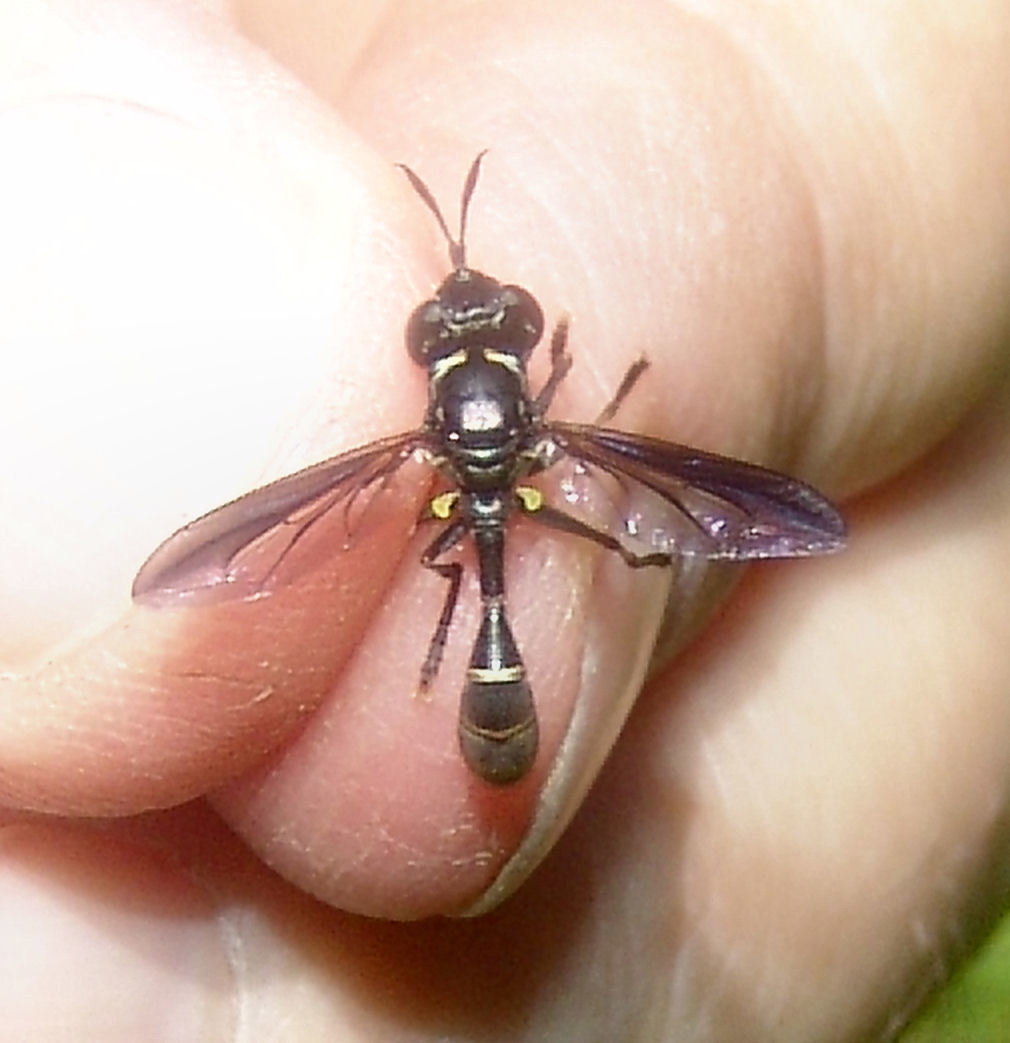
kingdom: Animalia
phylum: Arthropoda
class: Insecta
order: Diptera
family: Conopidae
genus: Physoconops
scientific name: Physoconops bulbirostris
